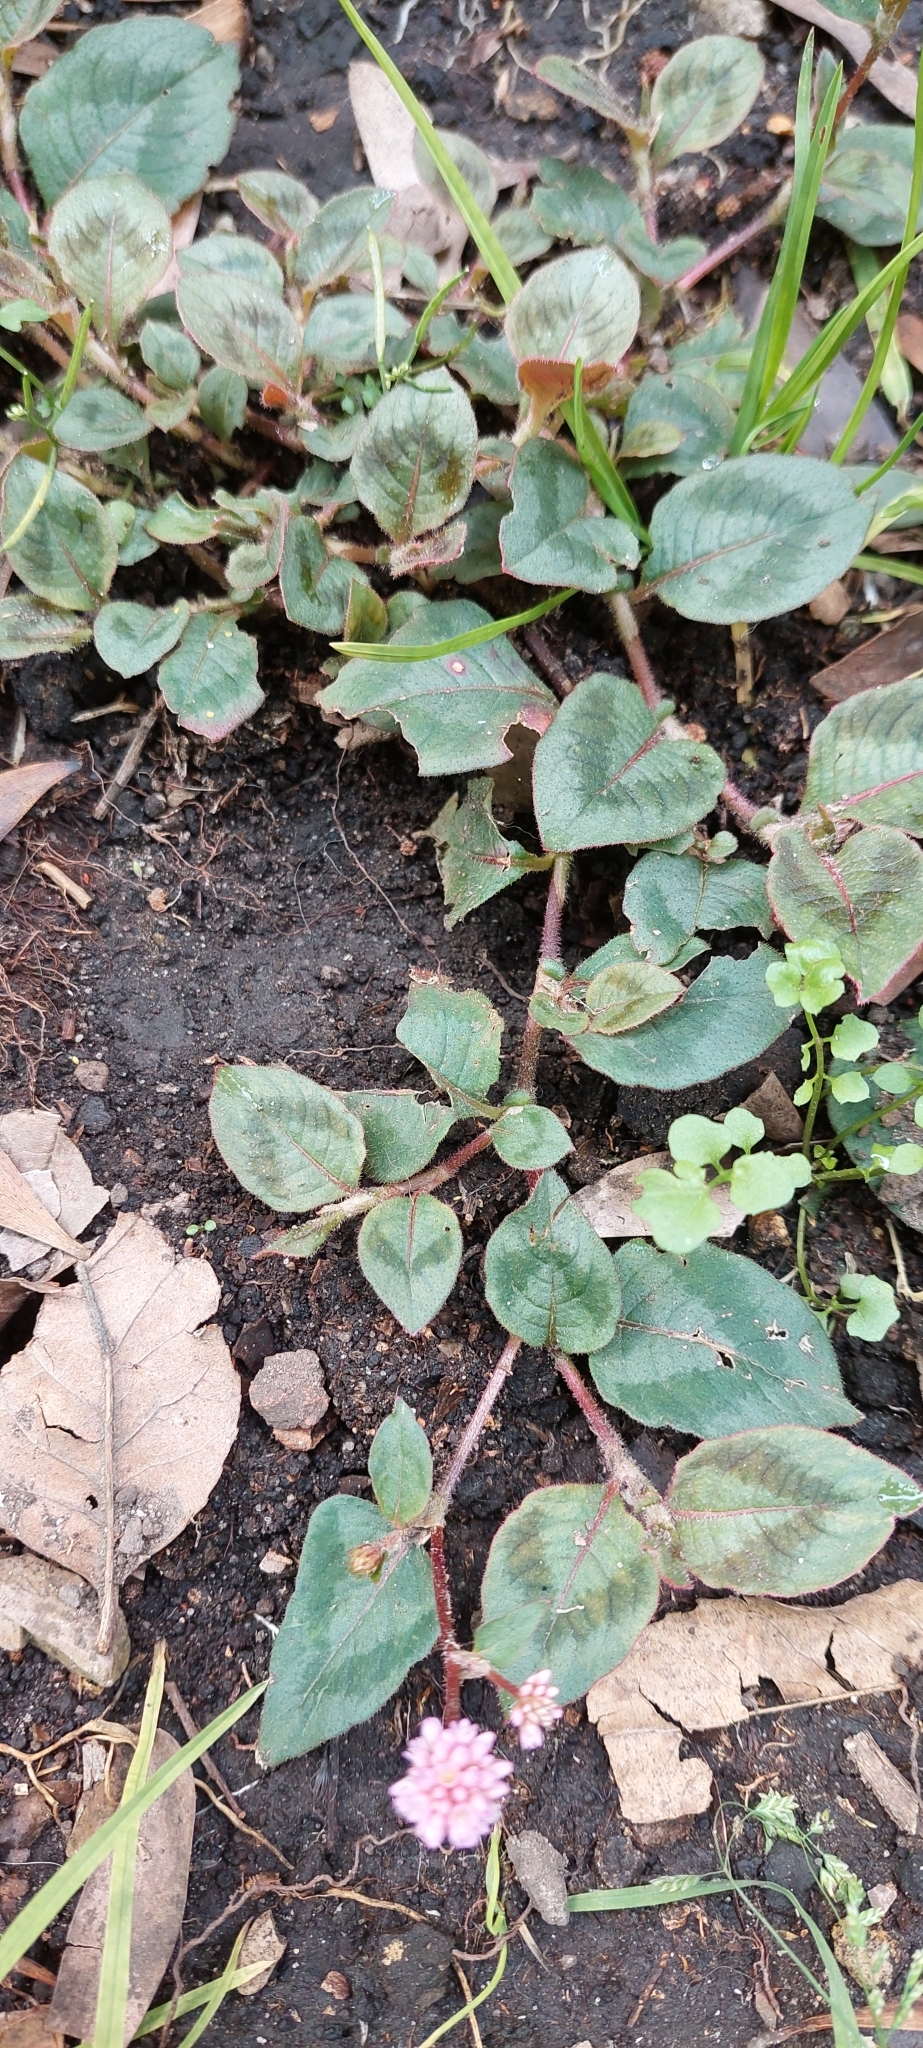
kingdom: Plantae
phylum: Tracheophyta
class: Magnoliopsida
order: Caryophyllales
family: Polygonaceae
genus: Persicaria
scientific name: Persicaria capitata
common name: Pinkhead smartweed
